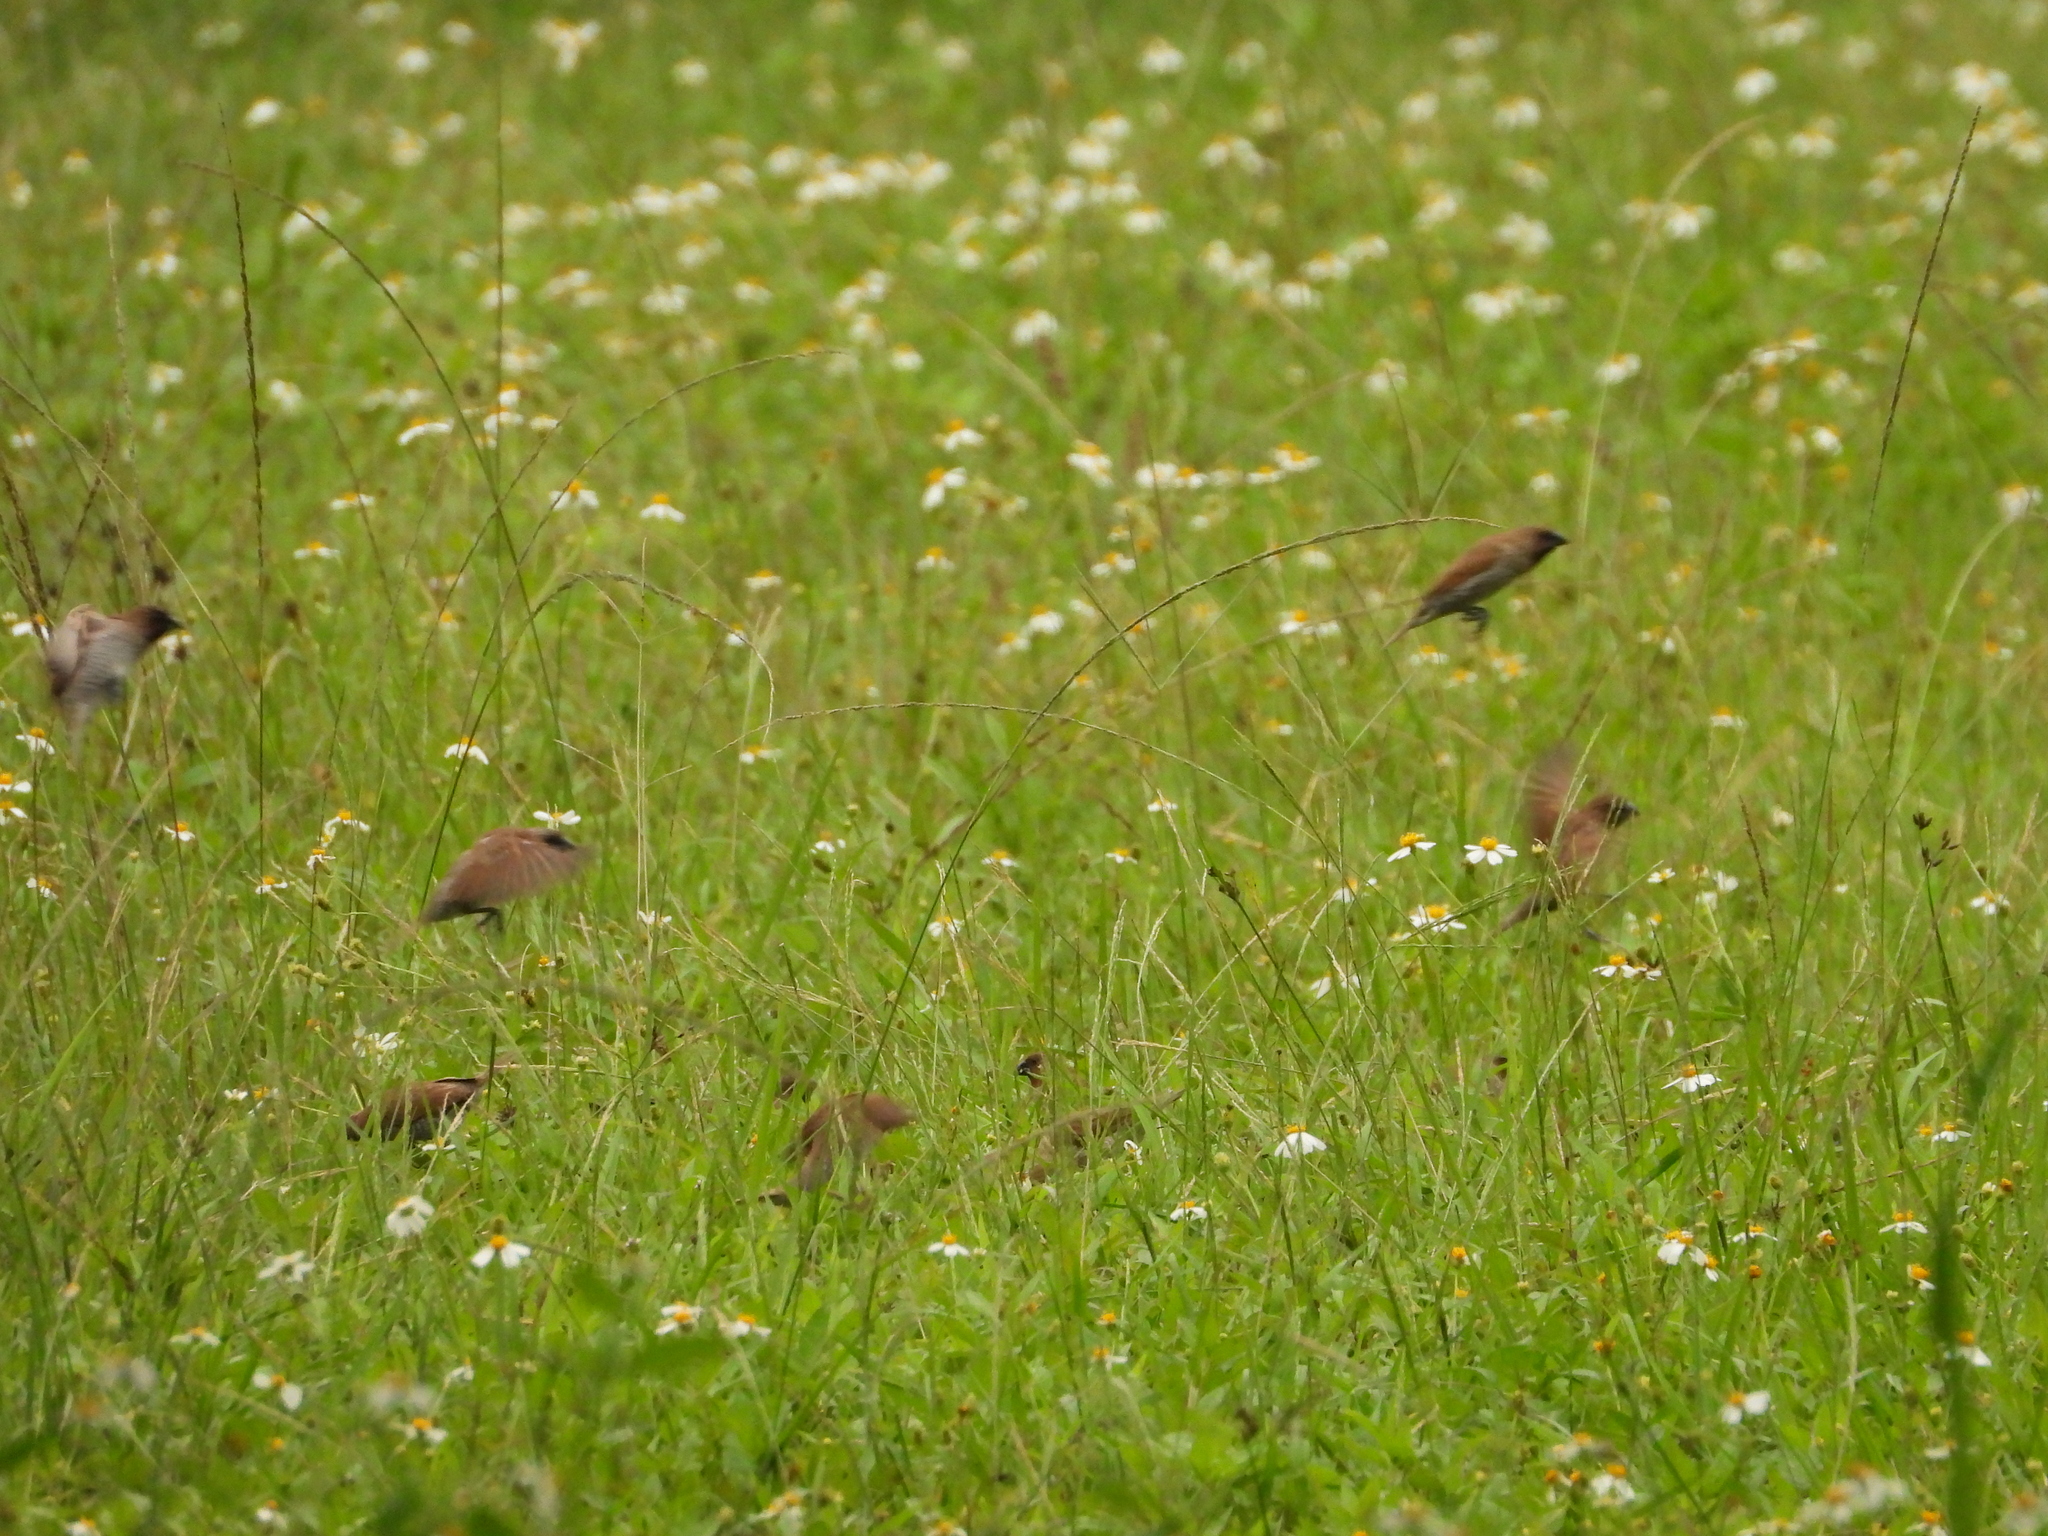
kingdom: Animalia
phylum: Chordata
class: Aves
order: Passeriformes
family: Estrildidae
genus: Lonchura
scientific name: Lonchura punctulata
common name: Scaly-breasted munia
